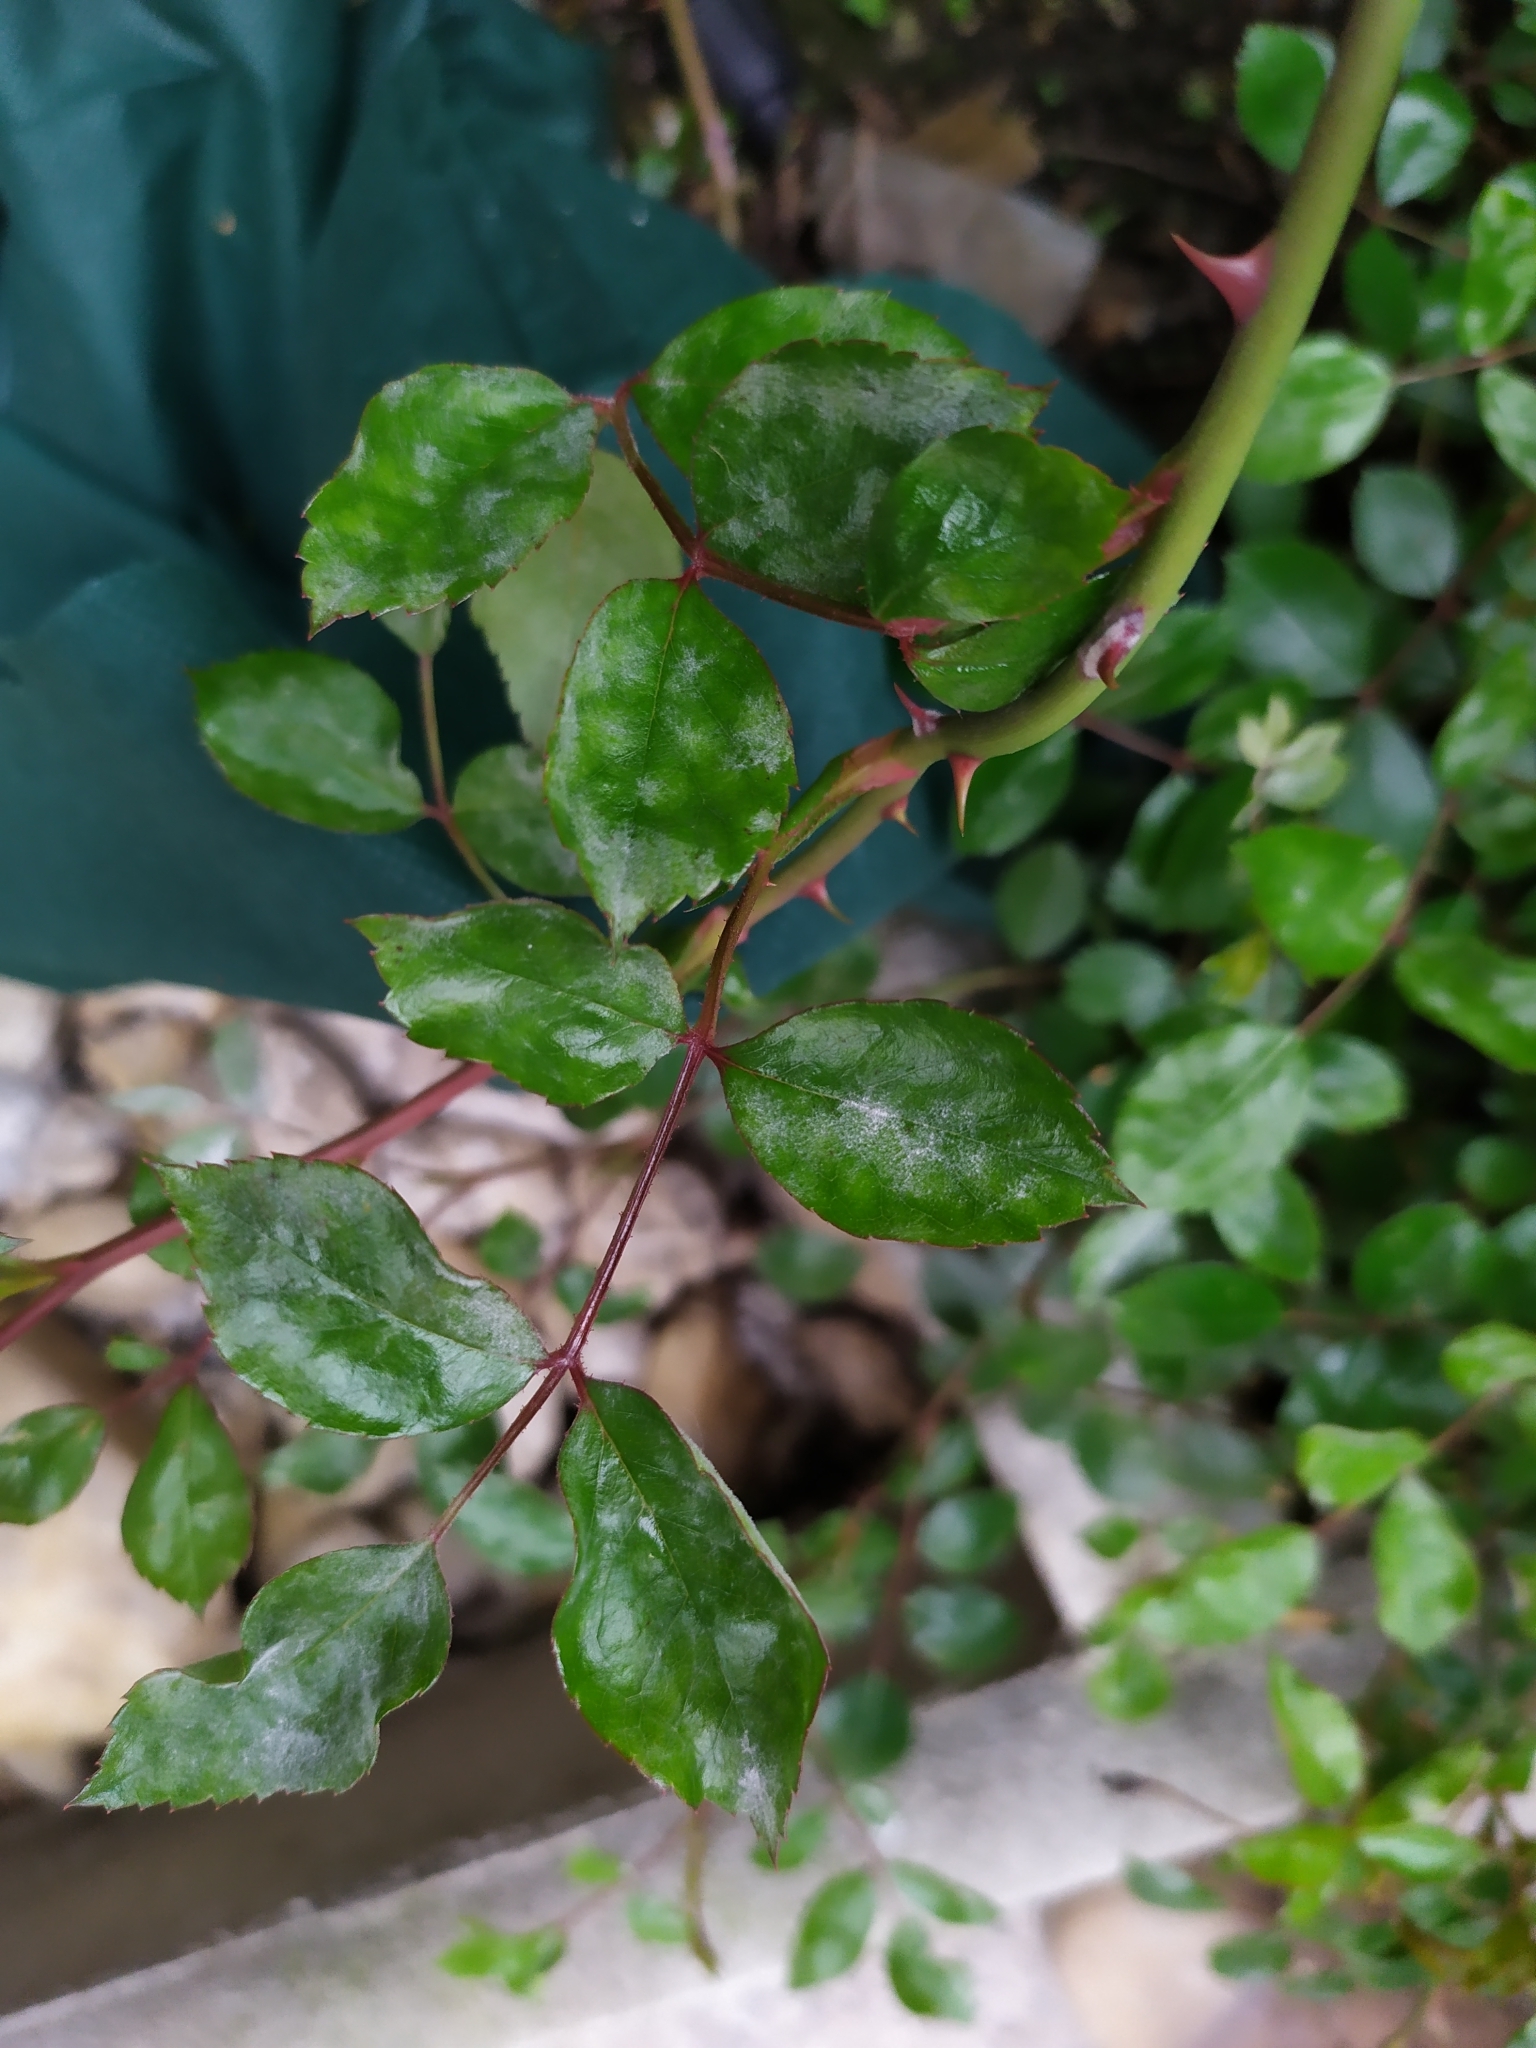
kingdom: Fungi
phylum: Ascomycota
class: Leotiomycetes
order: Helotiales
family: Erysiphaceae
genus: Podosphaera
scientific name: Podosphaera pannosa
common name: Rose mildew
